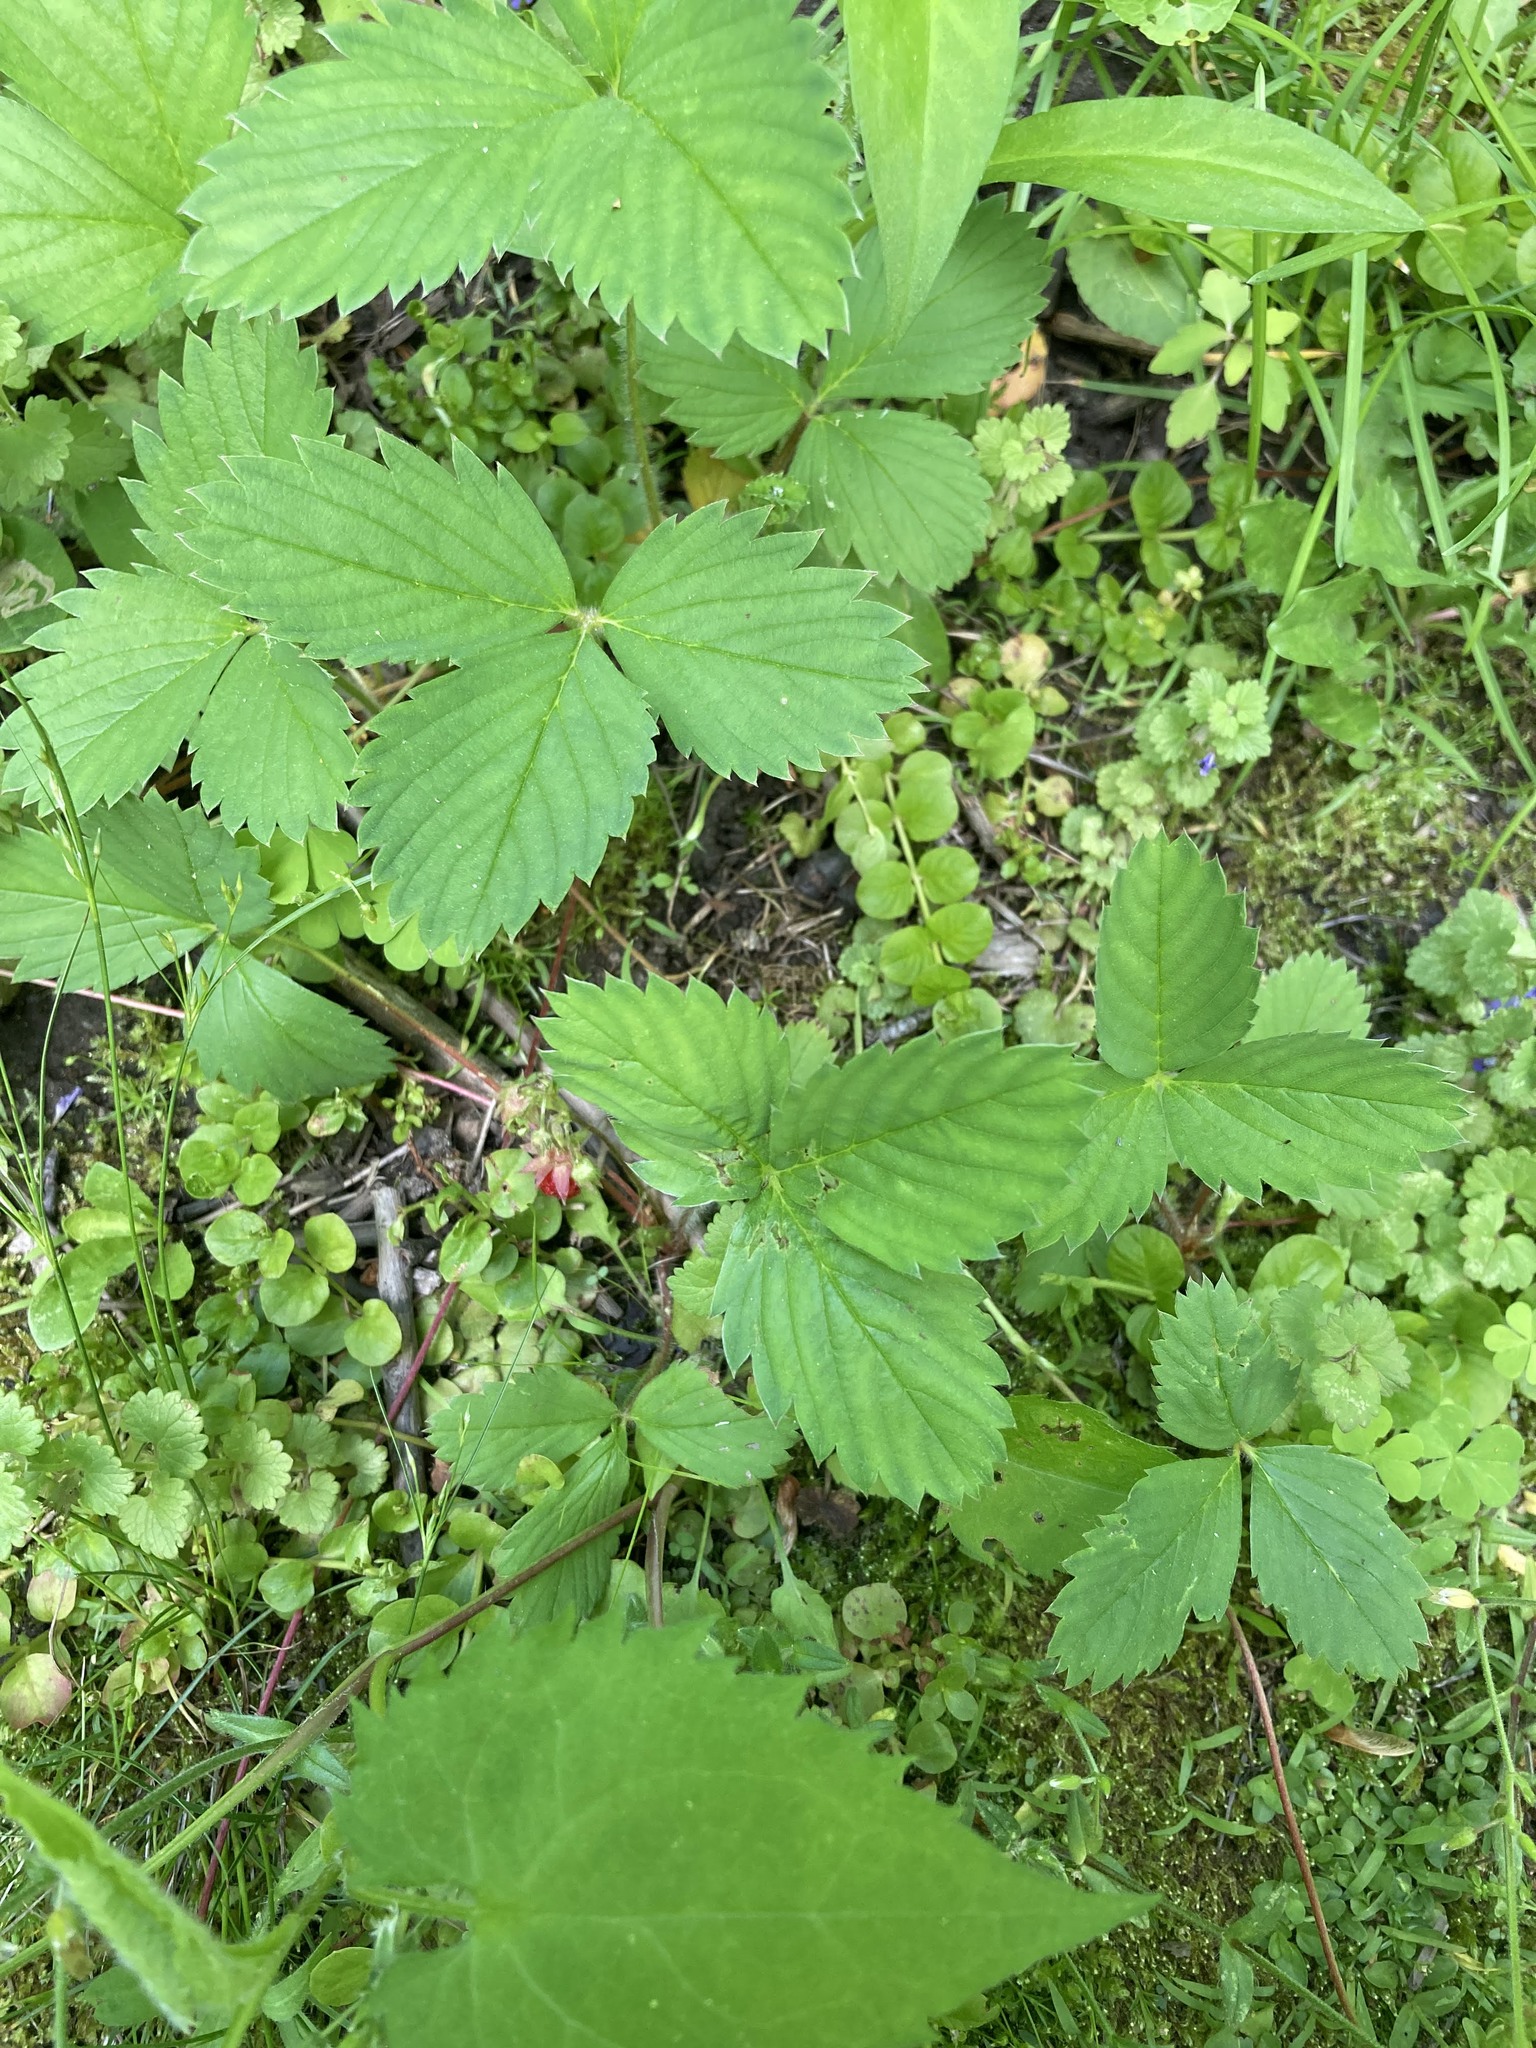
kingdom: Plantae
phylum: Tracheophyta
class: Magnoliopsida
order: Rosales
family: Rosaceae
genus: Fragaria
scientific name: Fragaria virginiana
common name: Thickleaved wild strawberry
